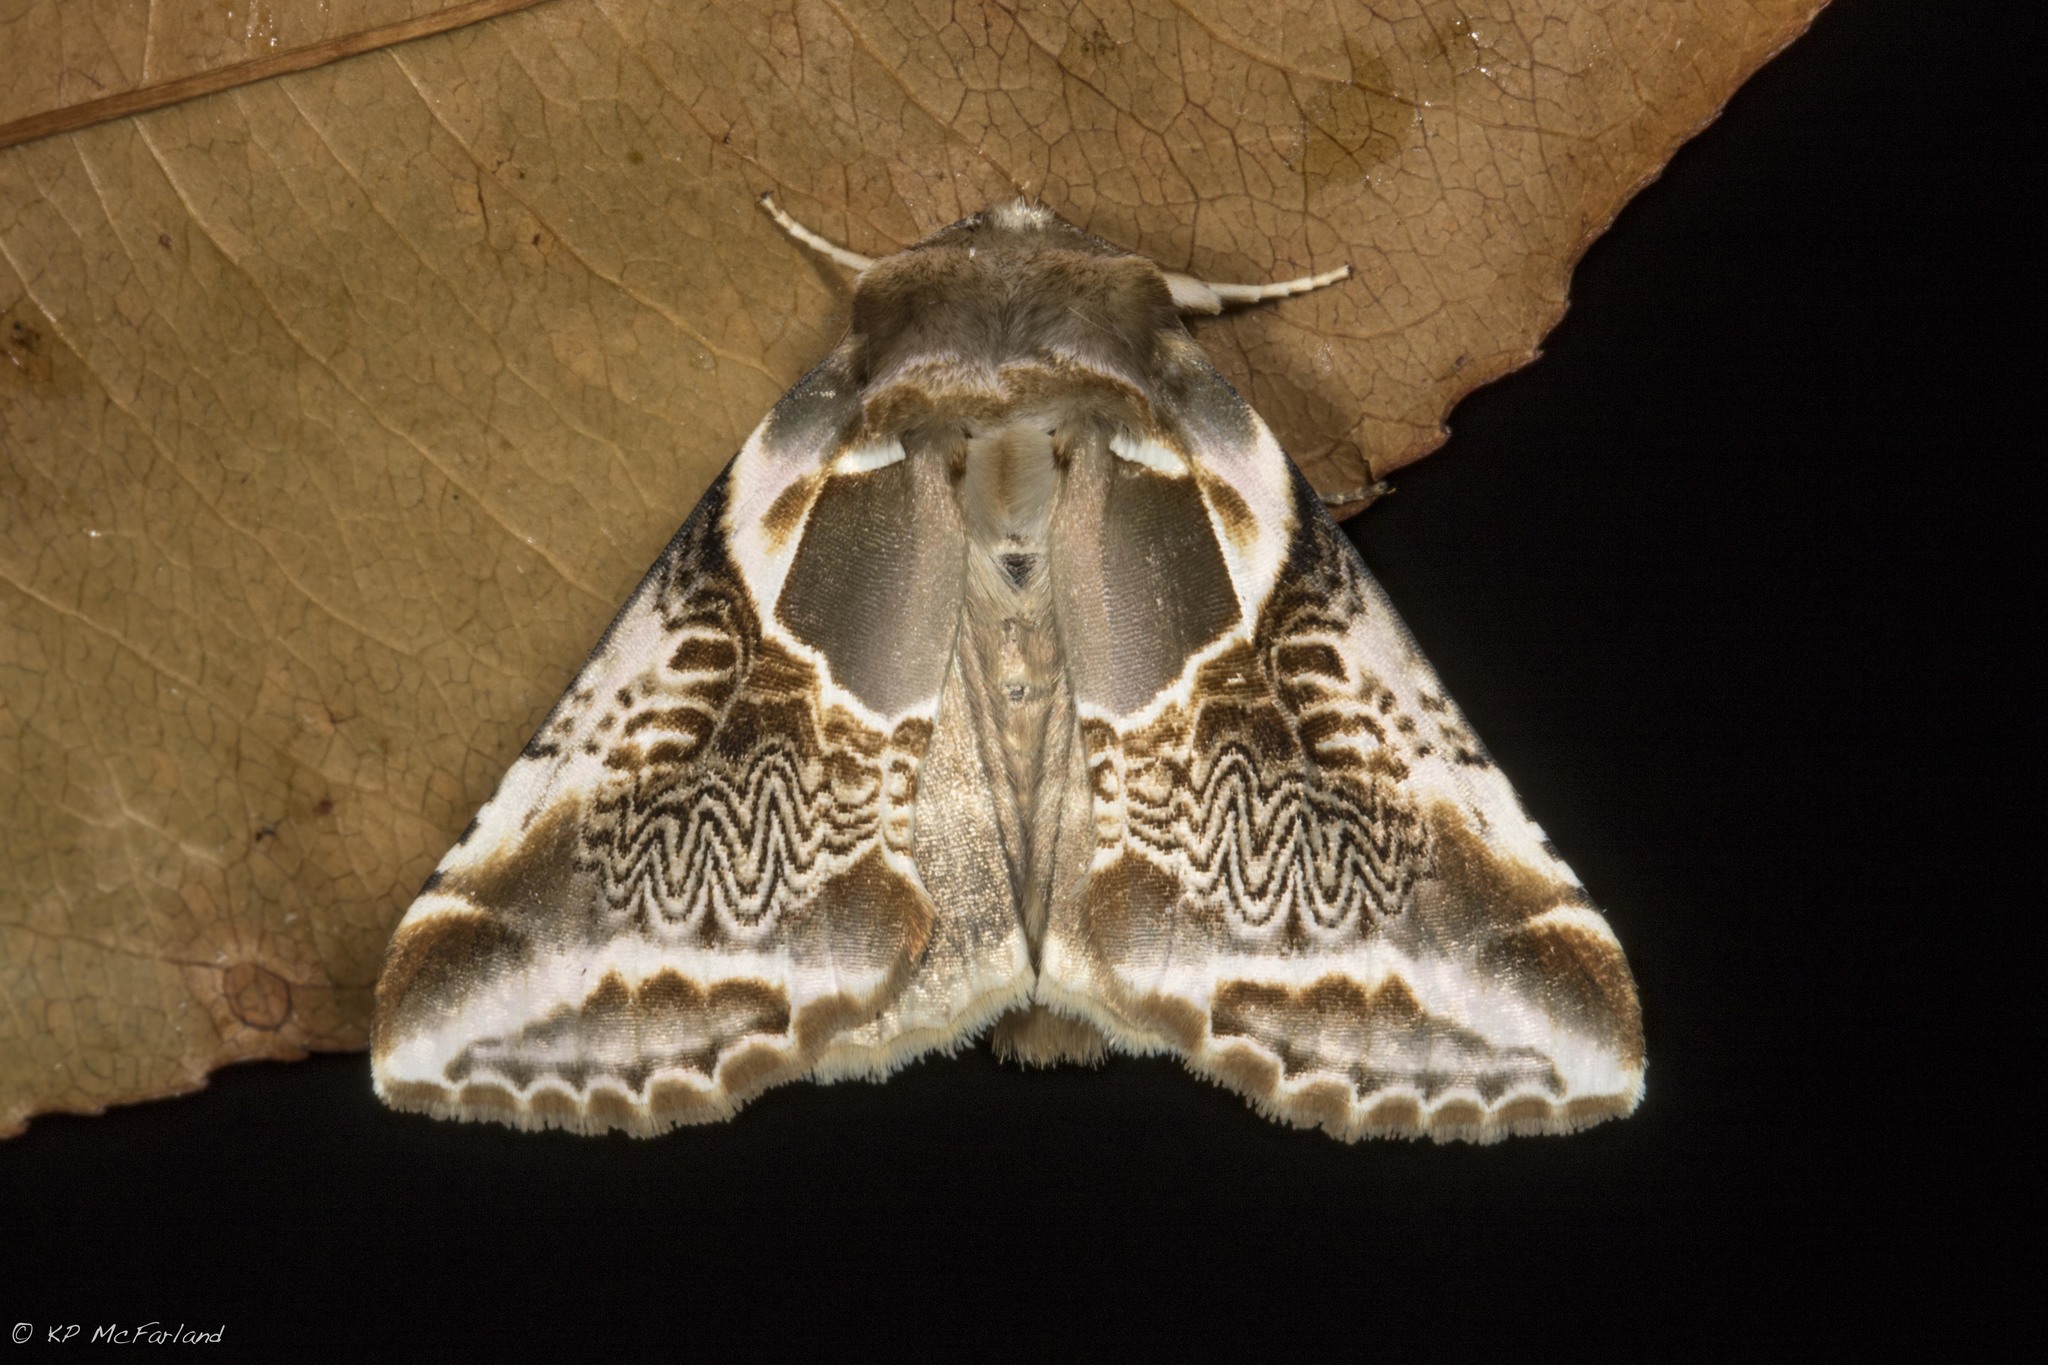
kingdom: Animalia
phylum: Arthropoda
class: Insecta
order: Lepidoptera
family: Drepanidae
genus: Habrosyne
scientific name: Habrosyne scripta
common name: Lettered habrosyne moth
